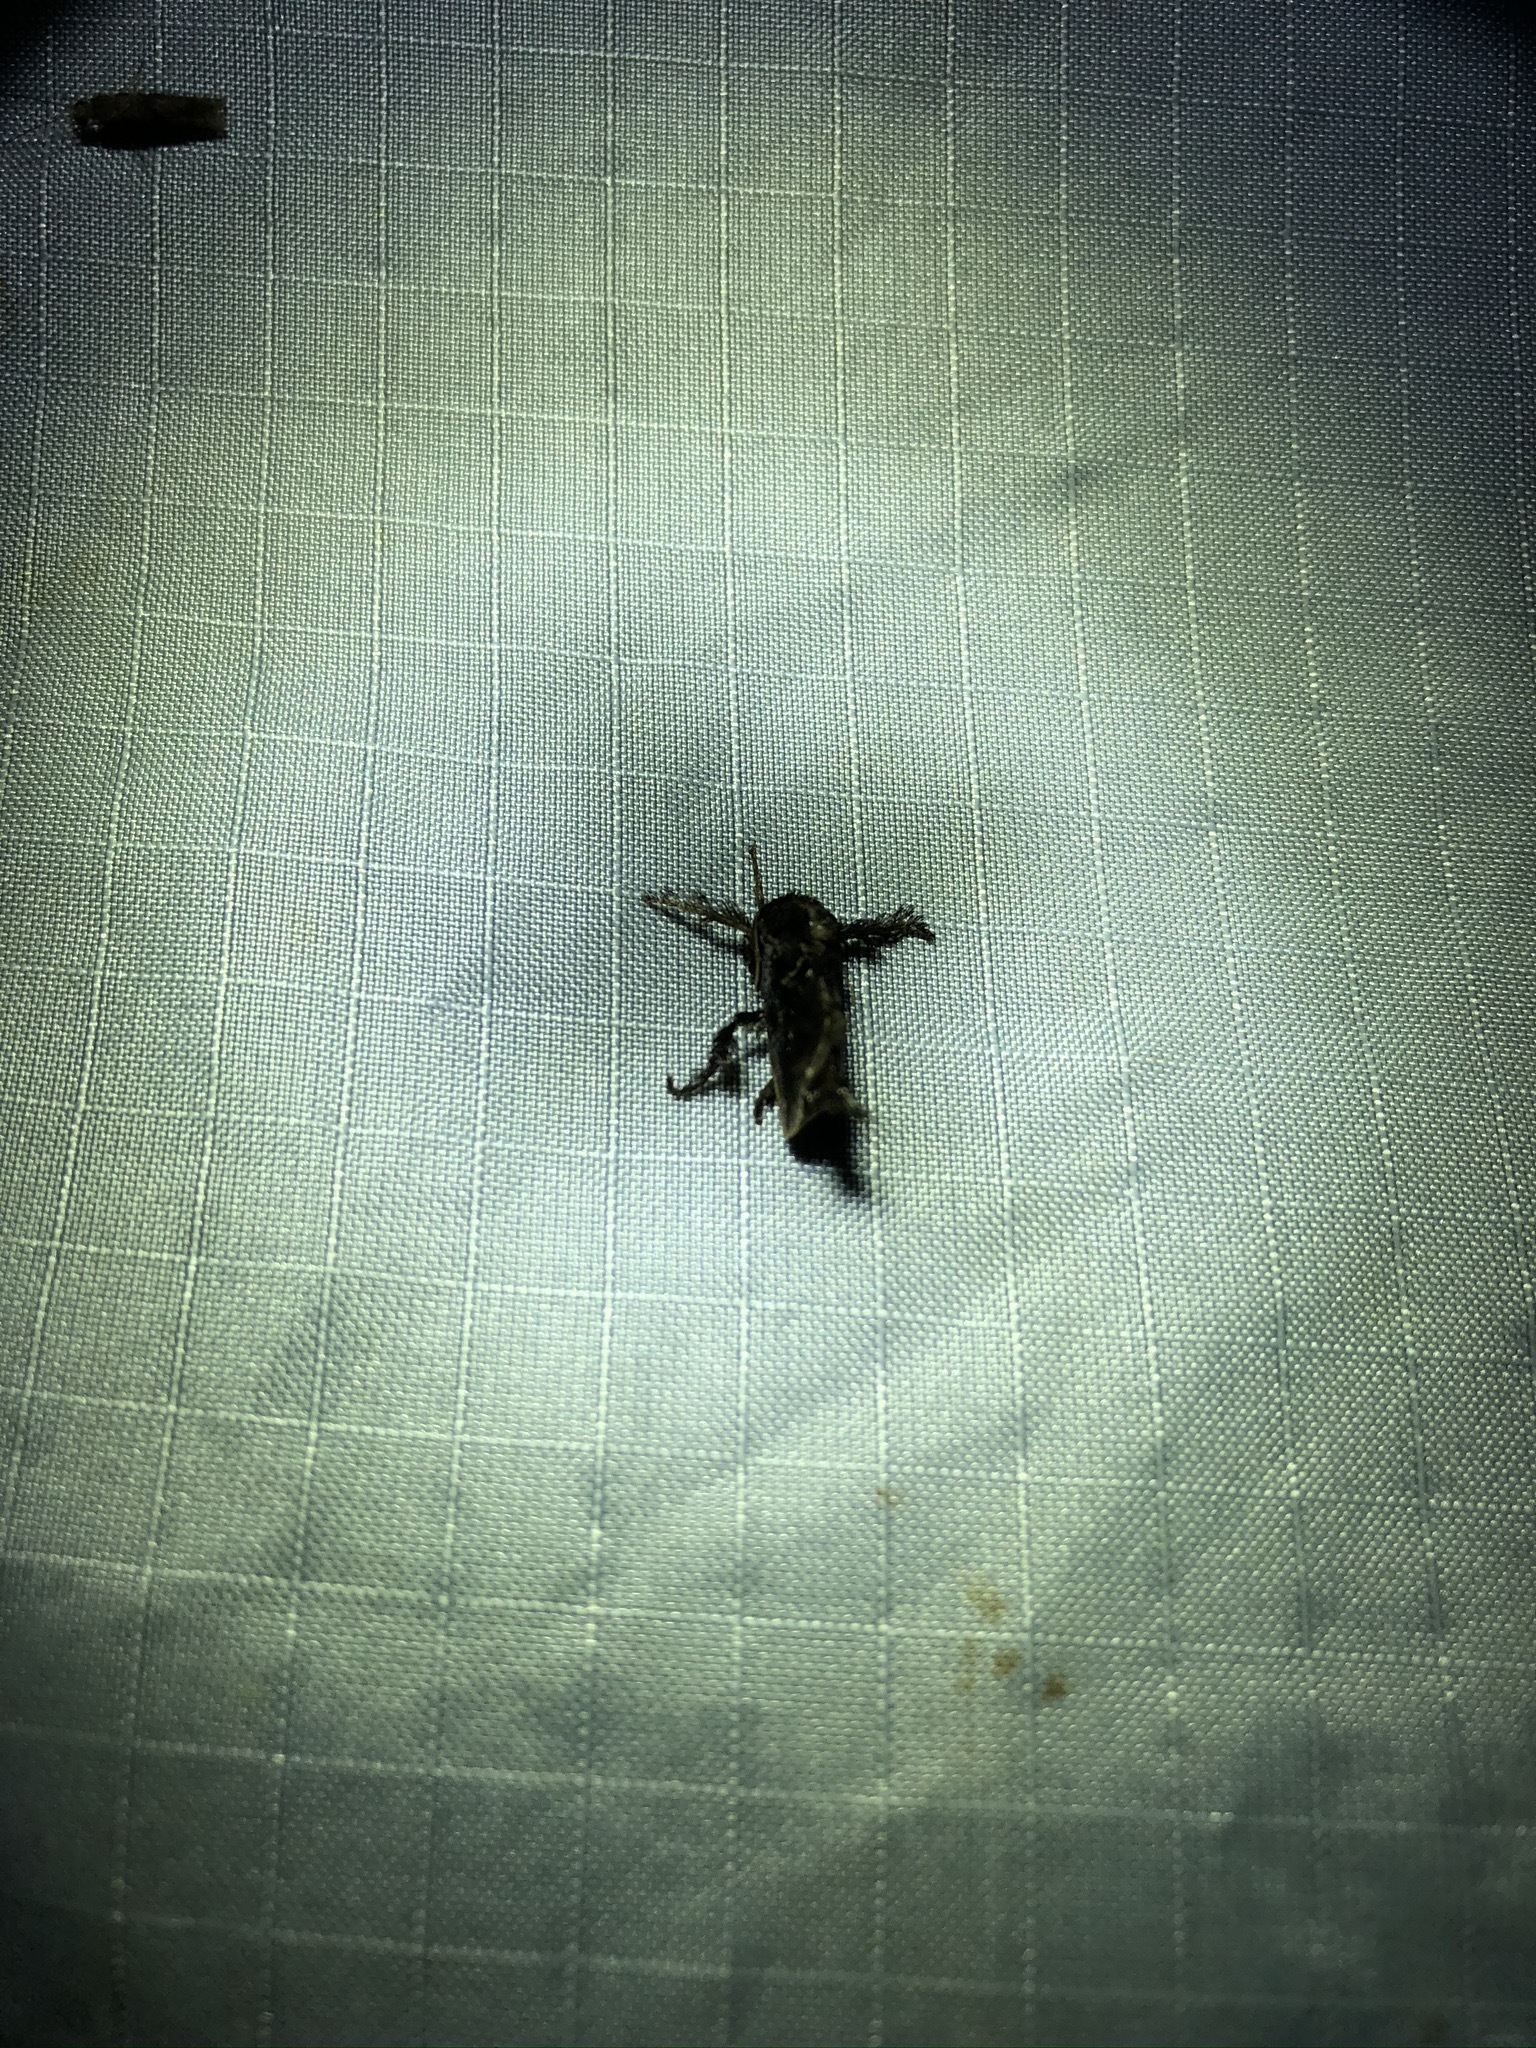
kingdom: Animalia
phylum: Arthropoda
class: Insecta
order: Lepidoptera
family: Limacodidae
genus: Euclea
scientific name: Euclea plugma
